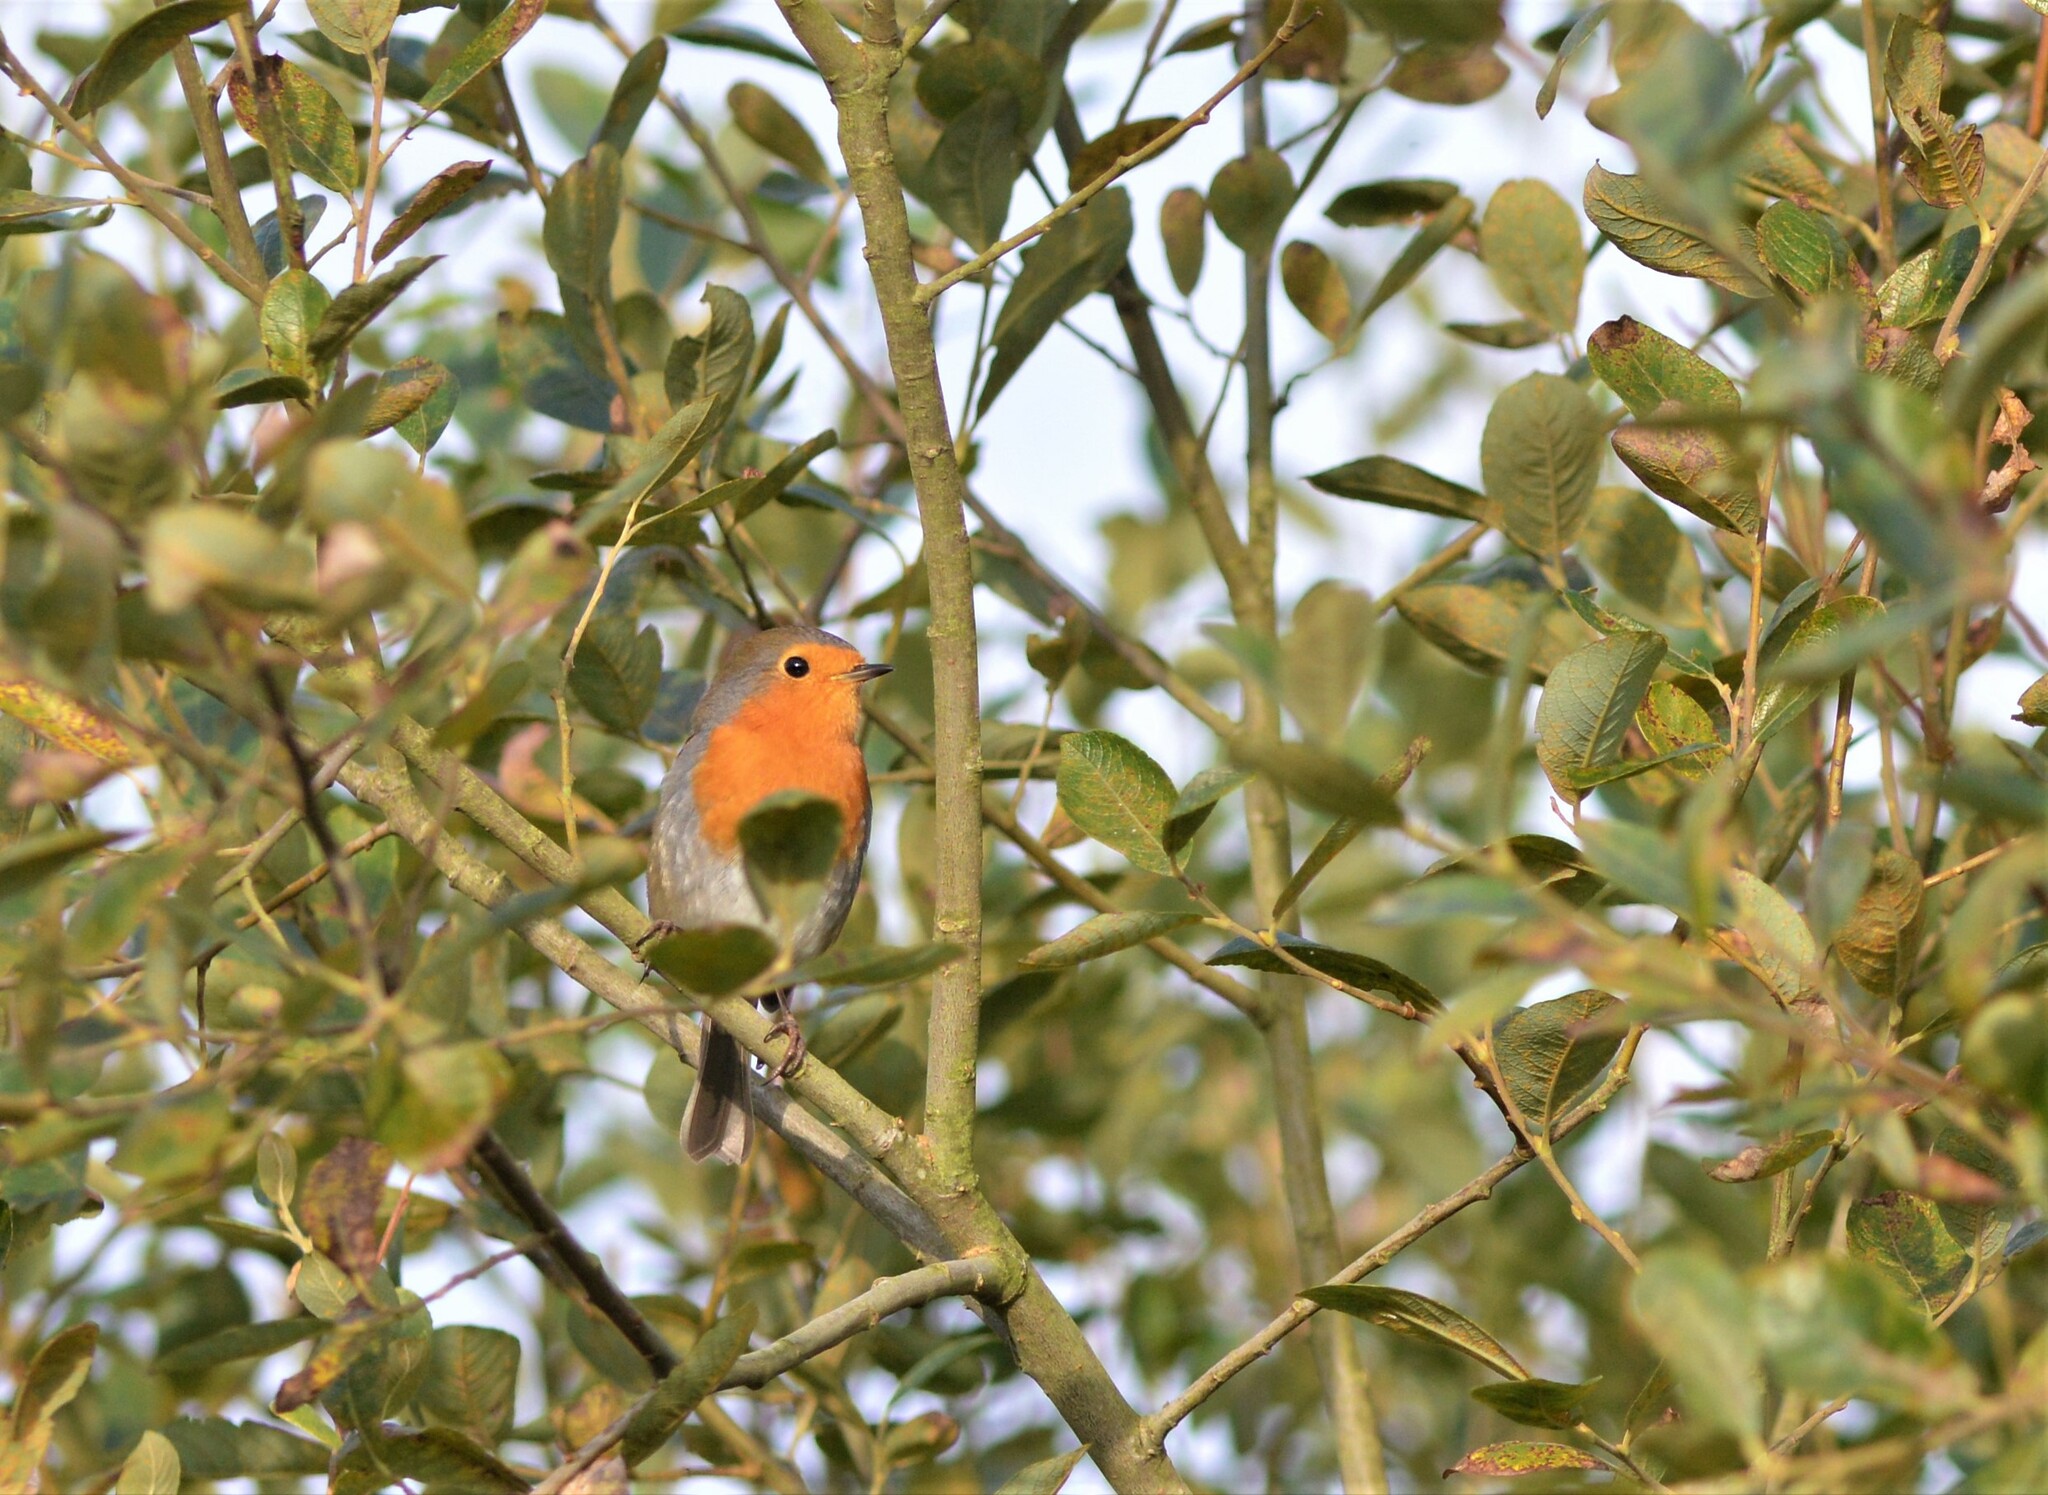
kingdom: Animalia
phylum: Chordata
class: Aves
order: Passeriformes
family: Muscicapidae
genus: Erithacus
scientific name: Erithacus rubecula
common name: European robin
